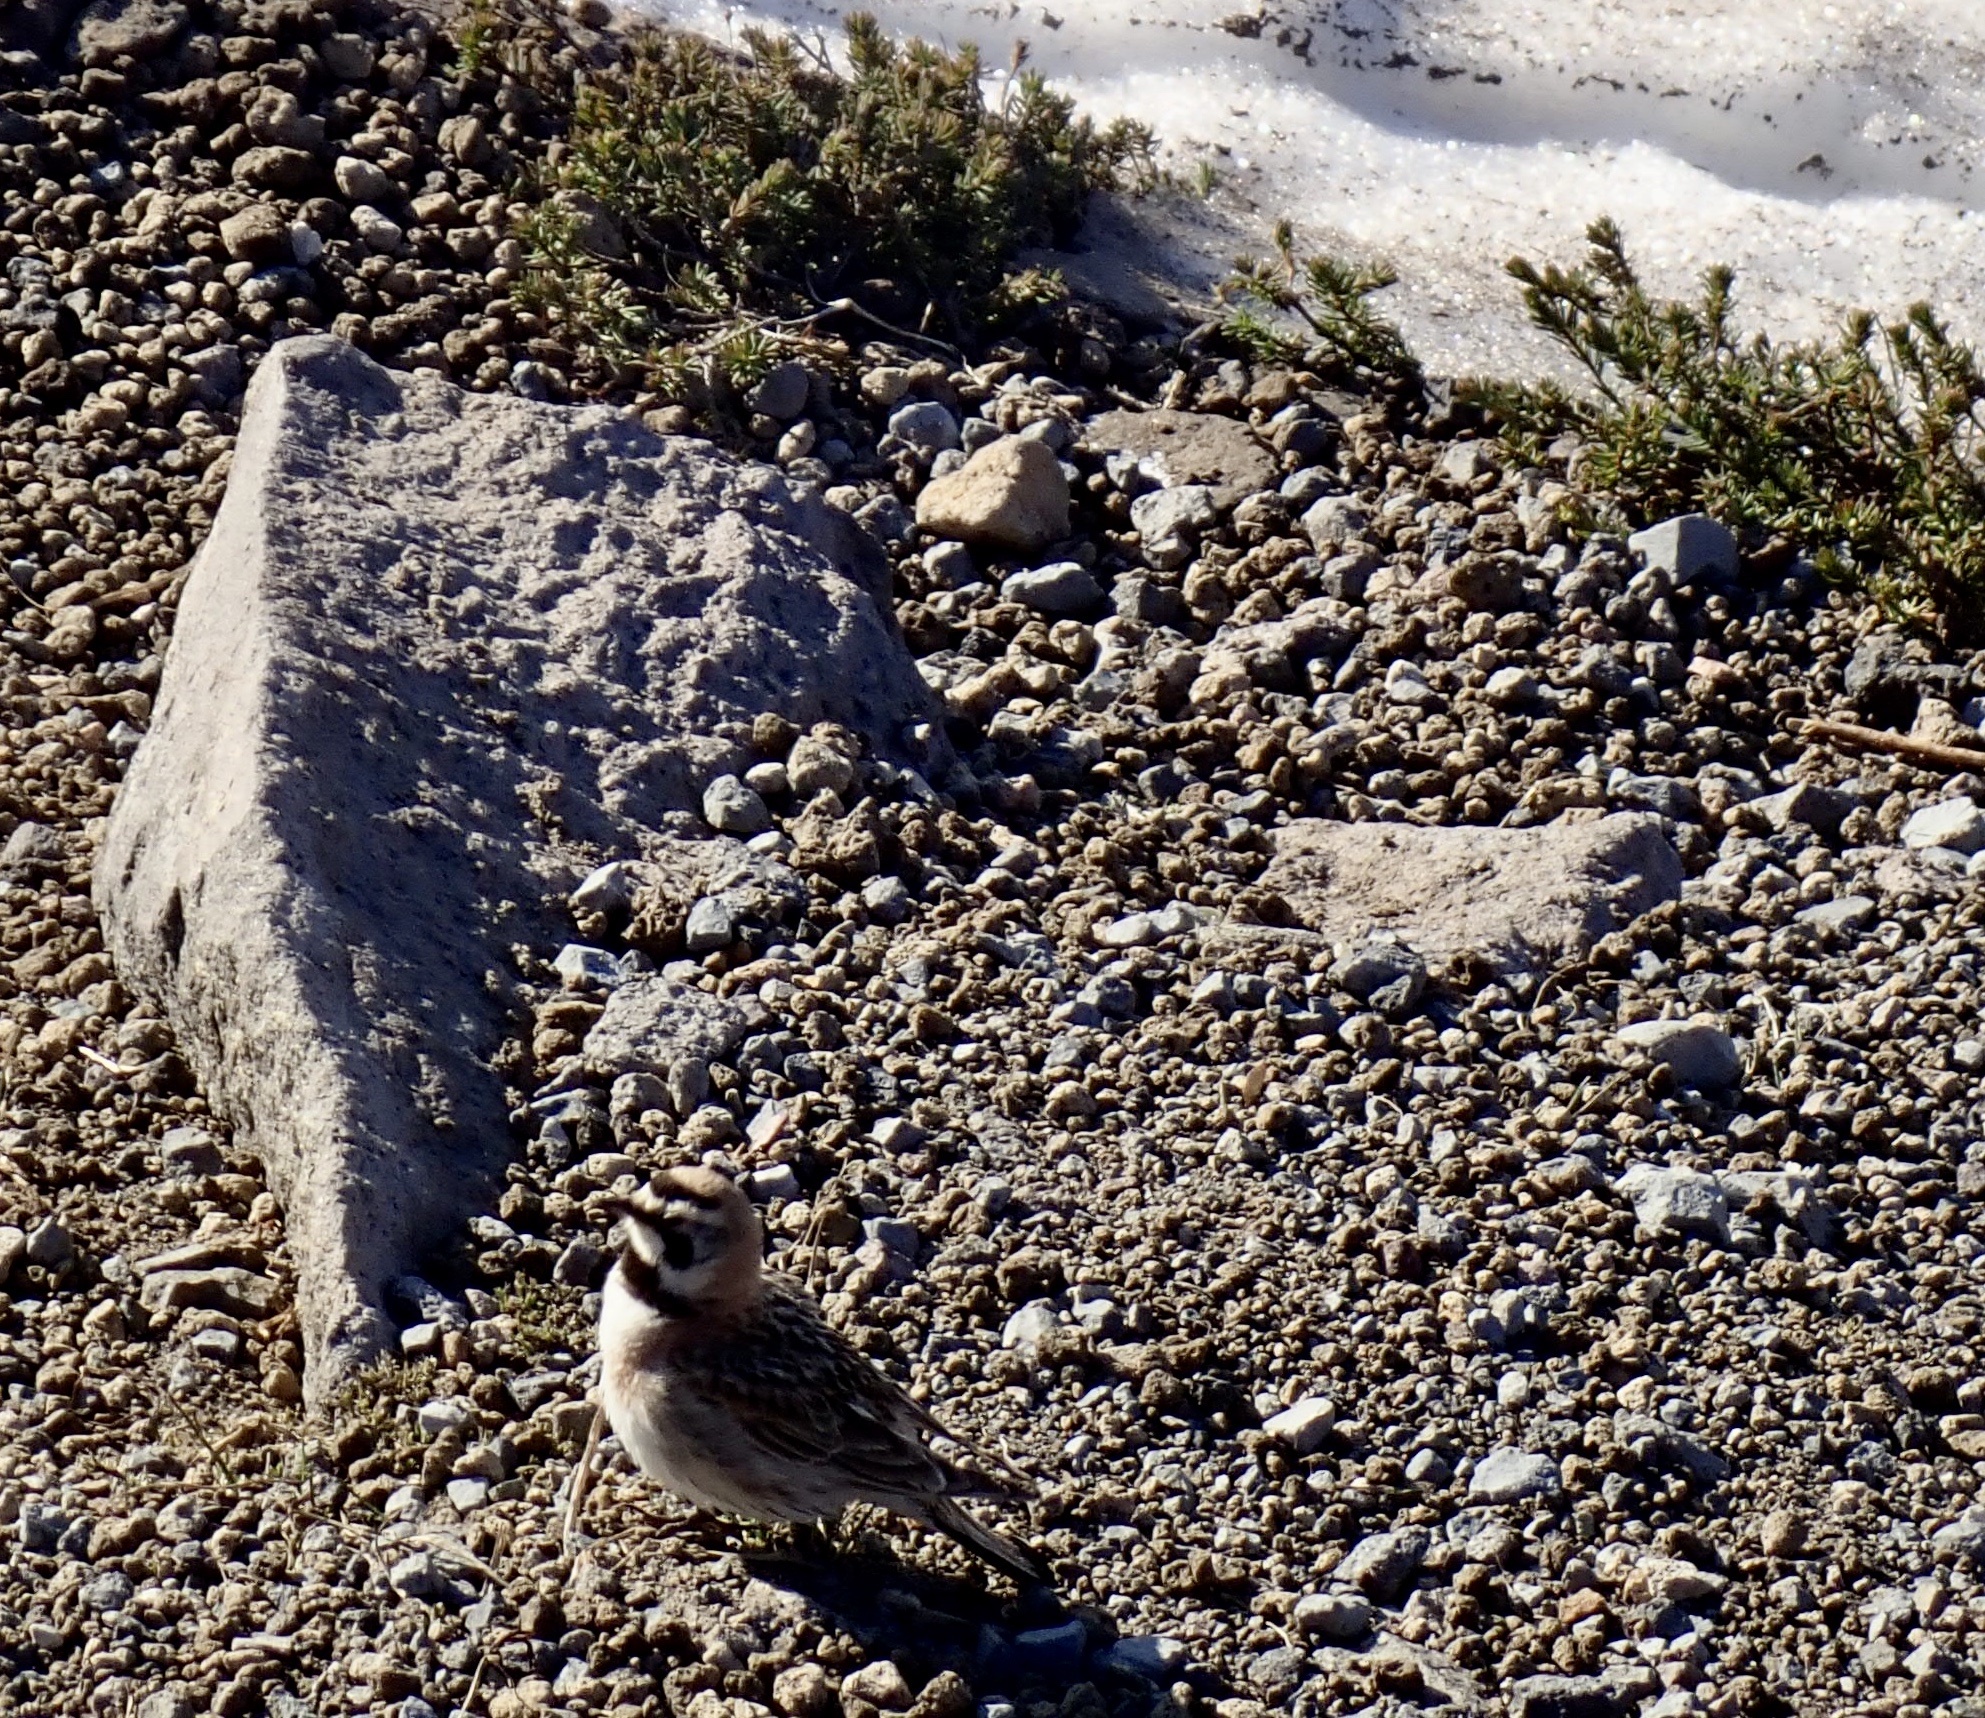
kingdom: Animalia
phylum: Chordata
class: Aves
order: Passeriformes
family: Alaudidae
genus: Eremophila
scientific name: Eremophila alpestris
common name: Horned lark
